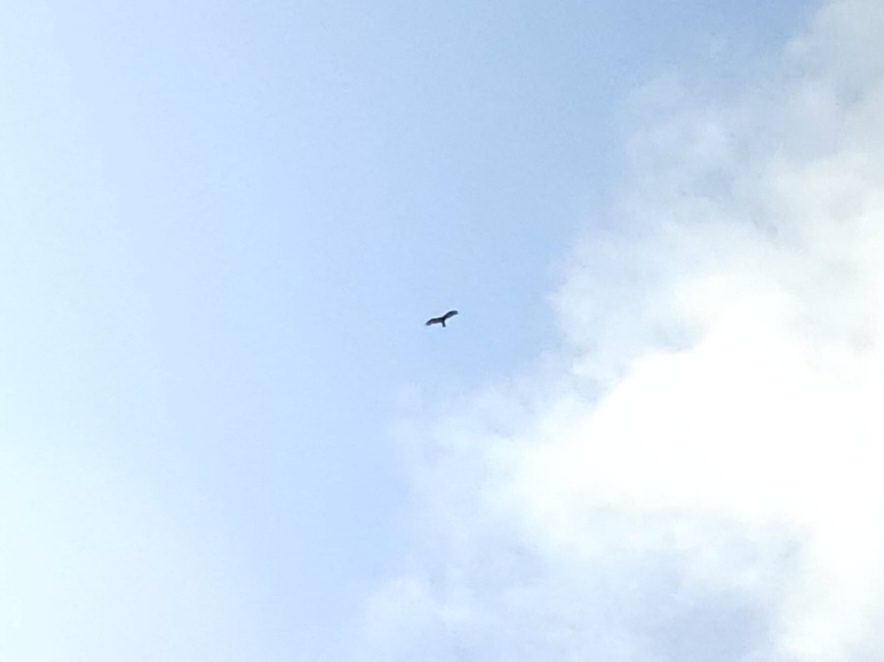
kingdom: Animalia
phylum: Chordata
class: Aves
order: Accipitriformes
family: Cathartidae
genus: Cathartes
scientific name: Cathartes aura
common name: Turkey vulture
